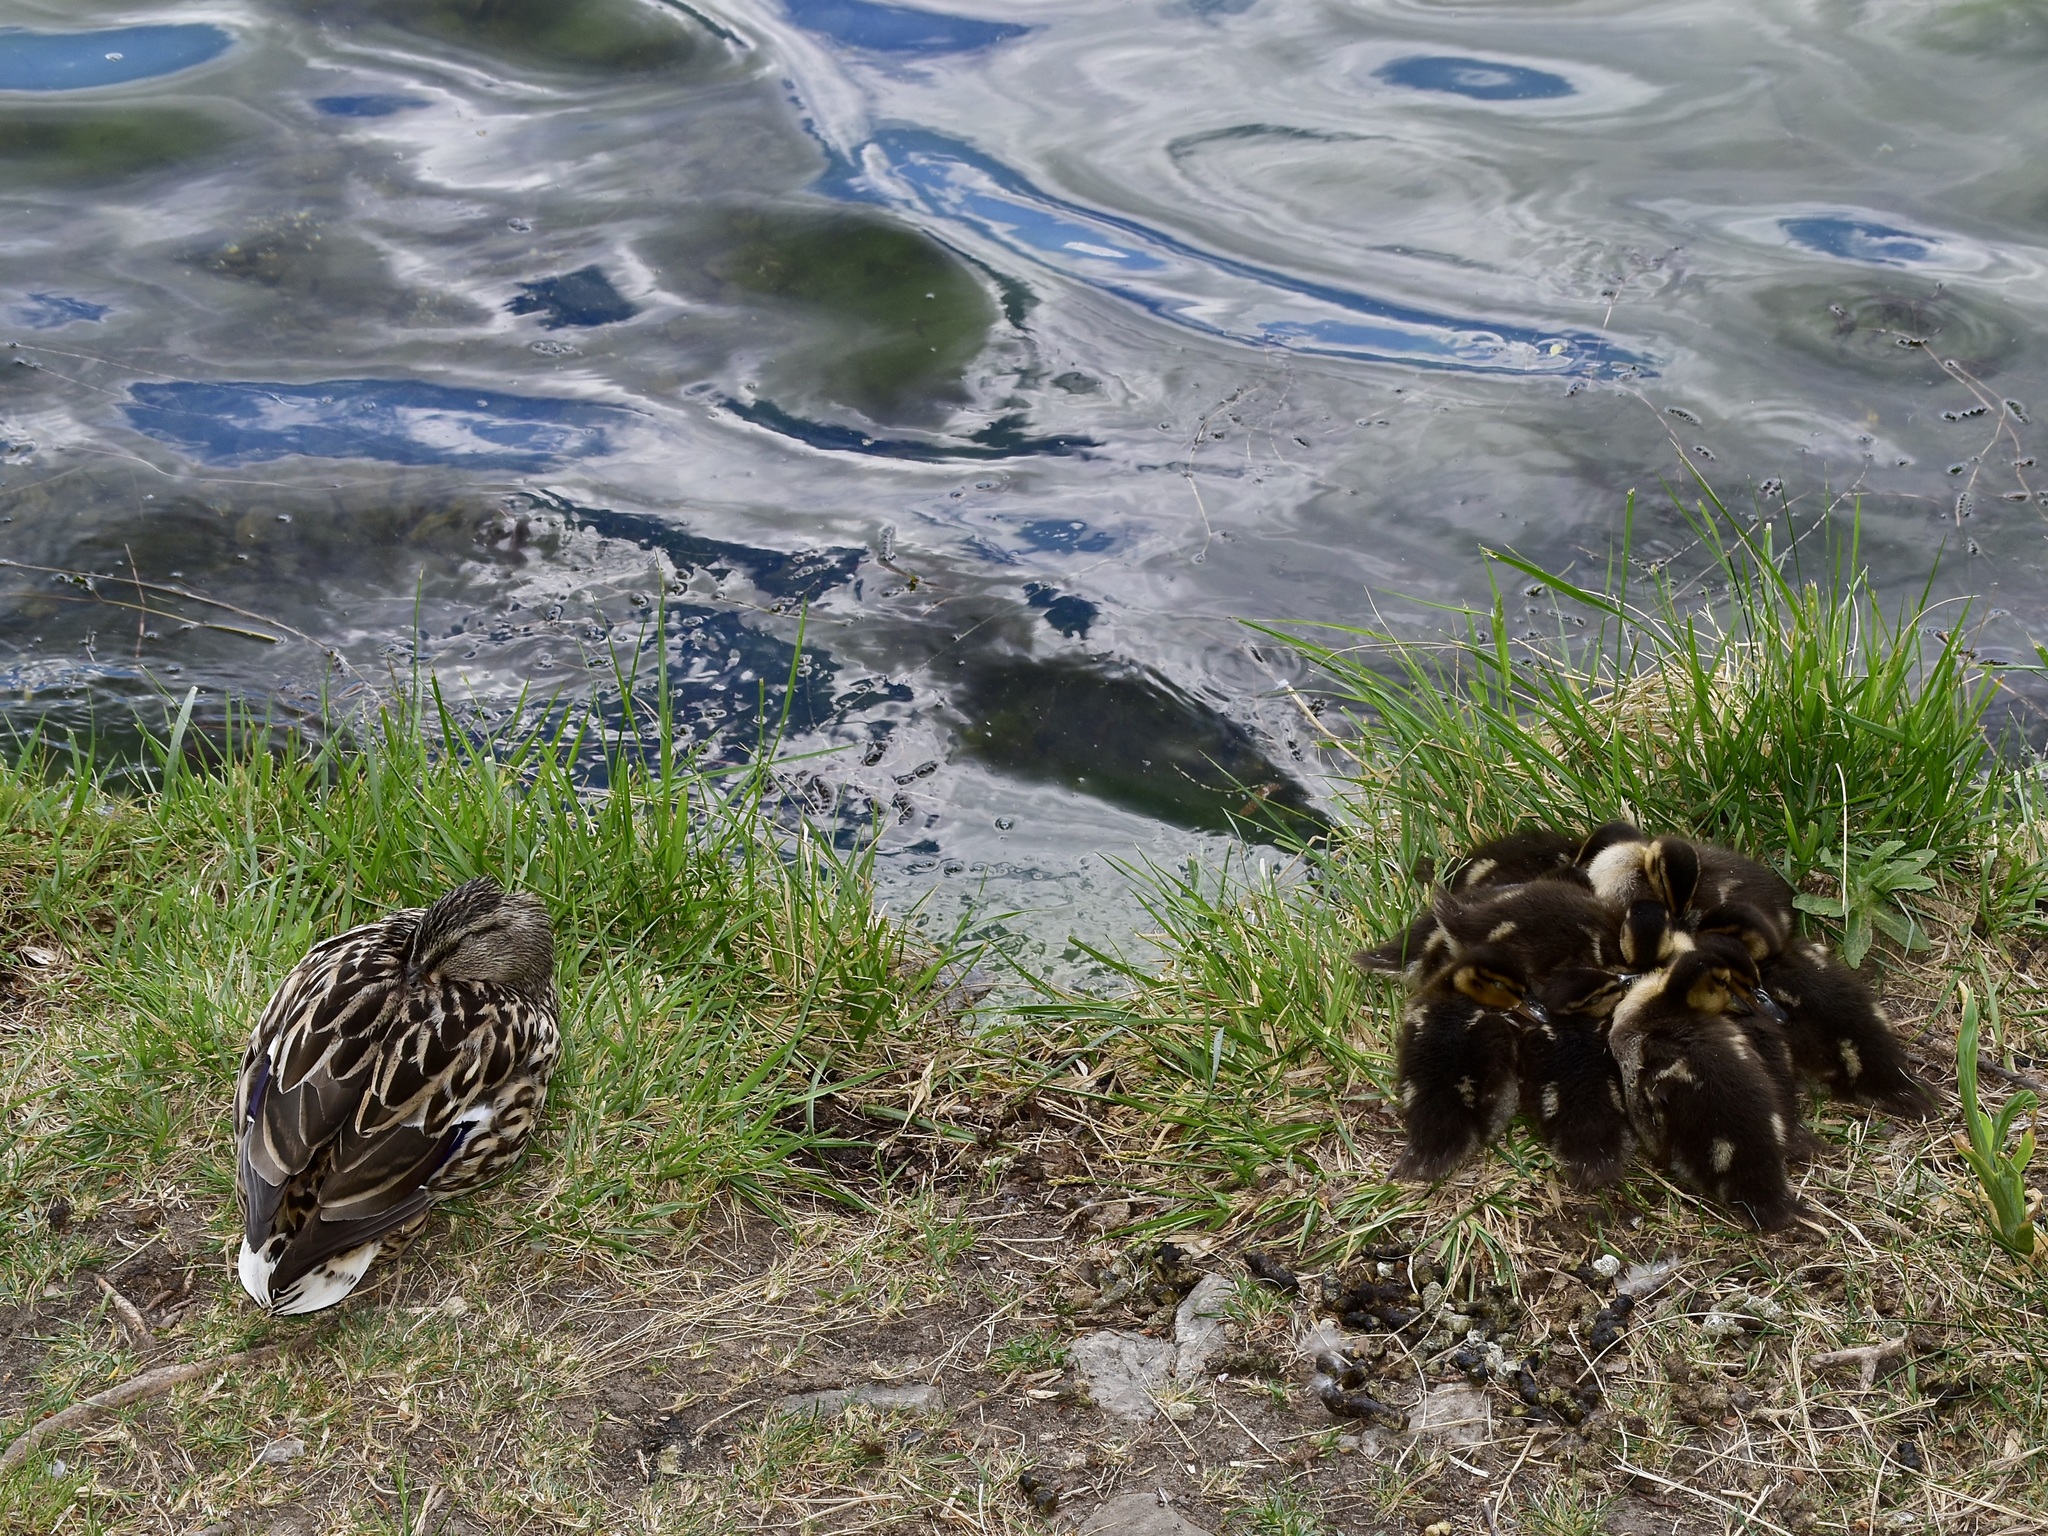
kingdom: Animalia
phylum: Chordata
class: Aves
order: Anseriformes
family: Anatidae
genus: Anas
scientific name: Anas platyrhynchos
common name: Mallard
